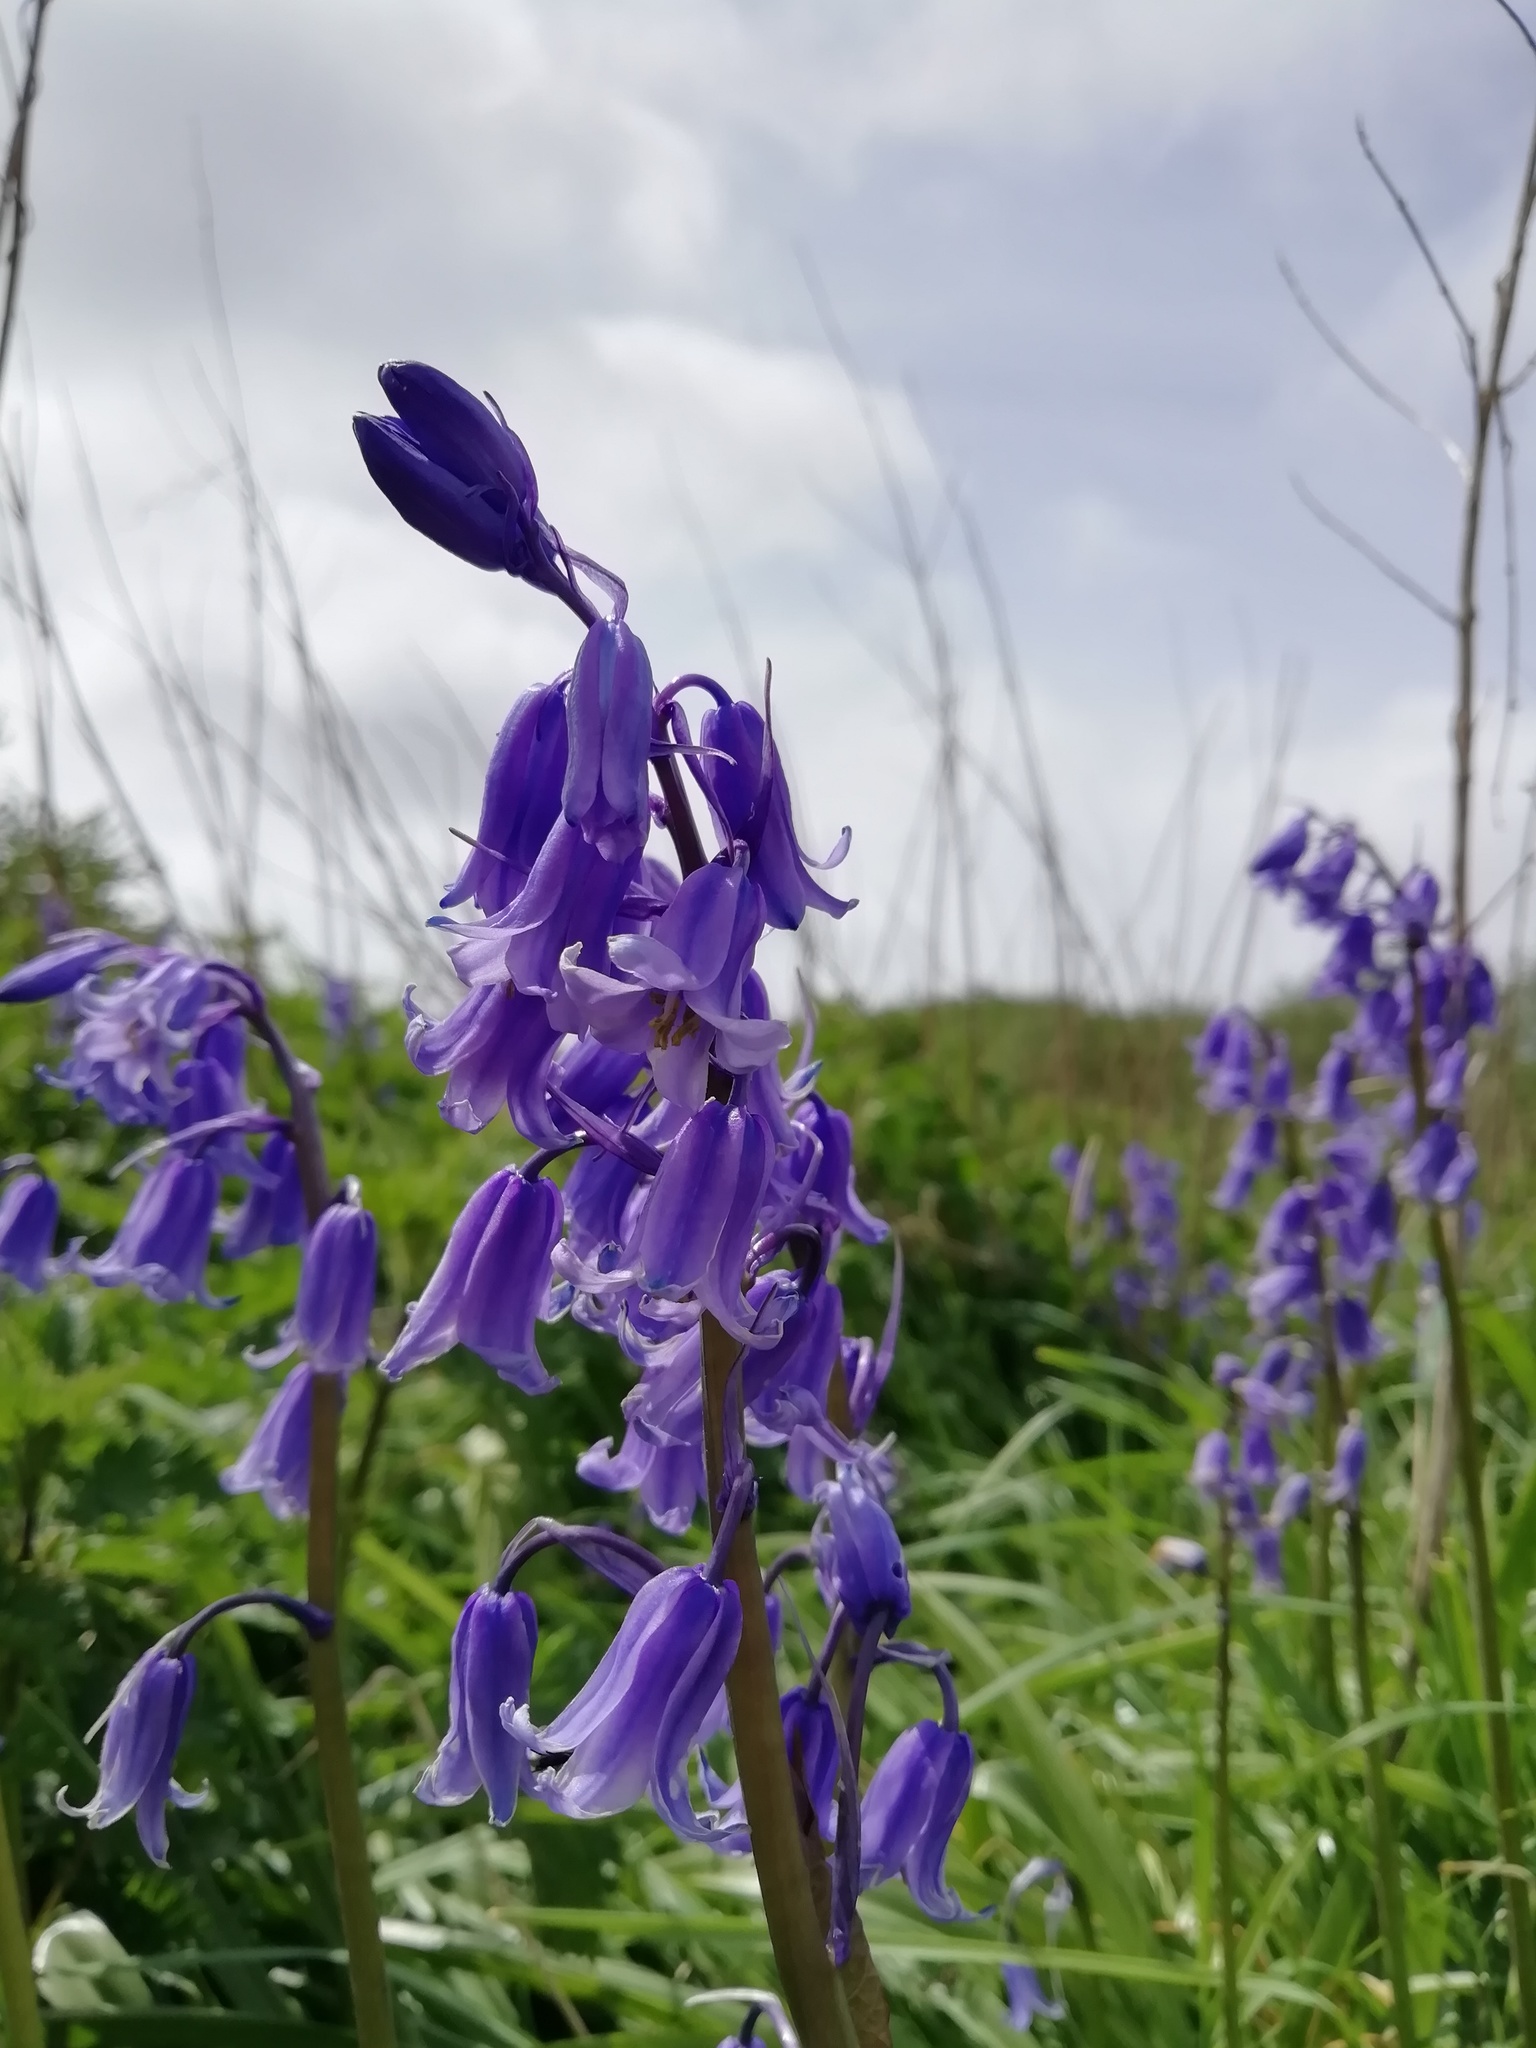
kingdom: Plantae
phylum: Tracheophyta
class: Liliopsida
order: Asparagales
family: Asparagaceae
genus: Hyacinthoides
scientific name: Hyacinthoides massartiana
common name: Hyacinthoides
